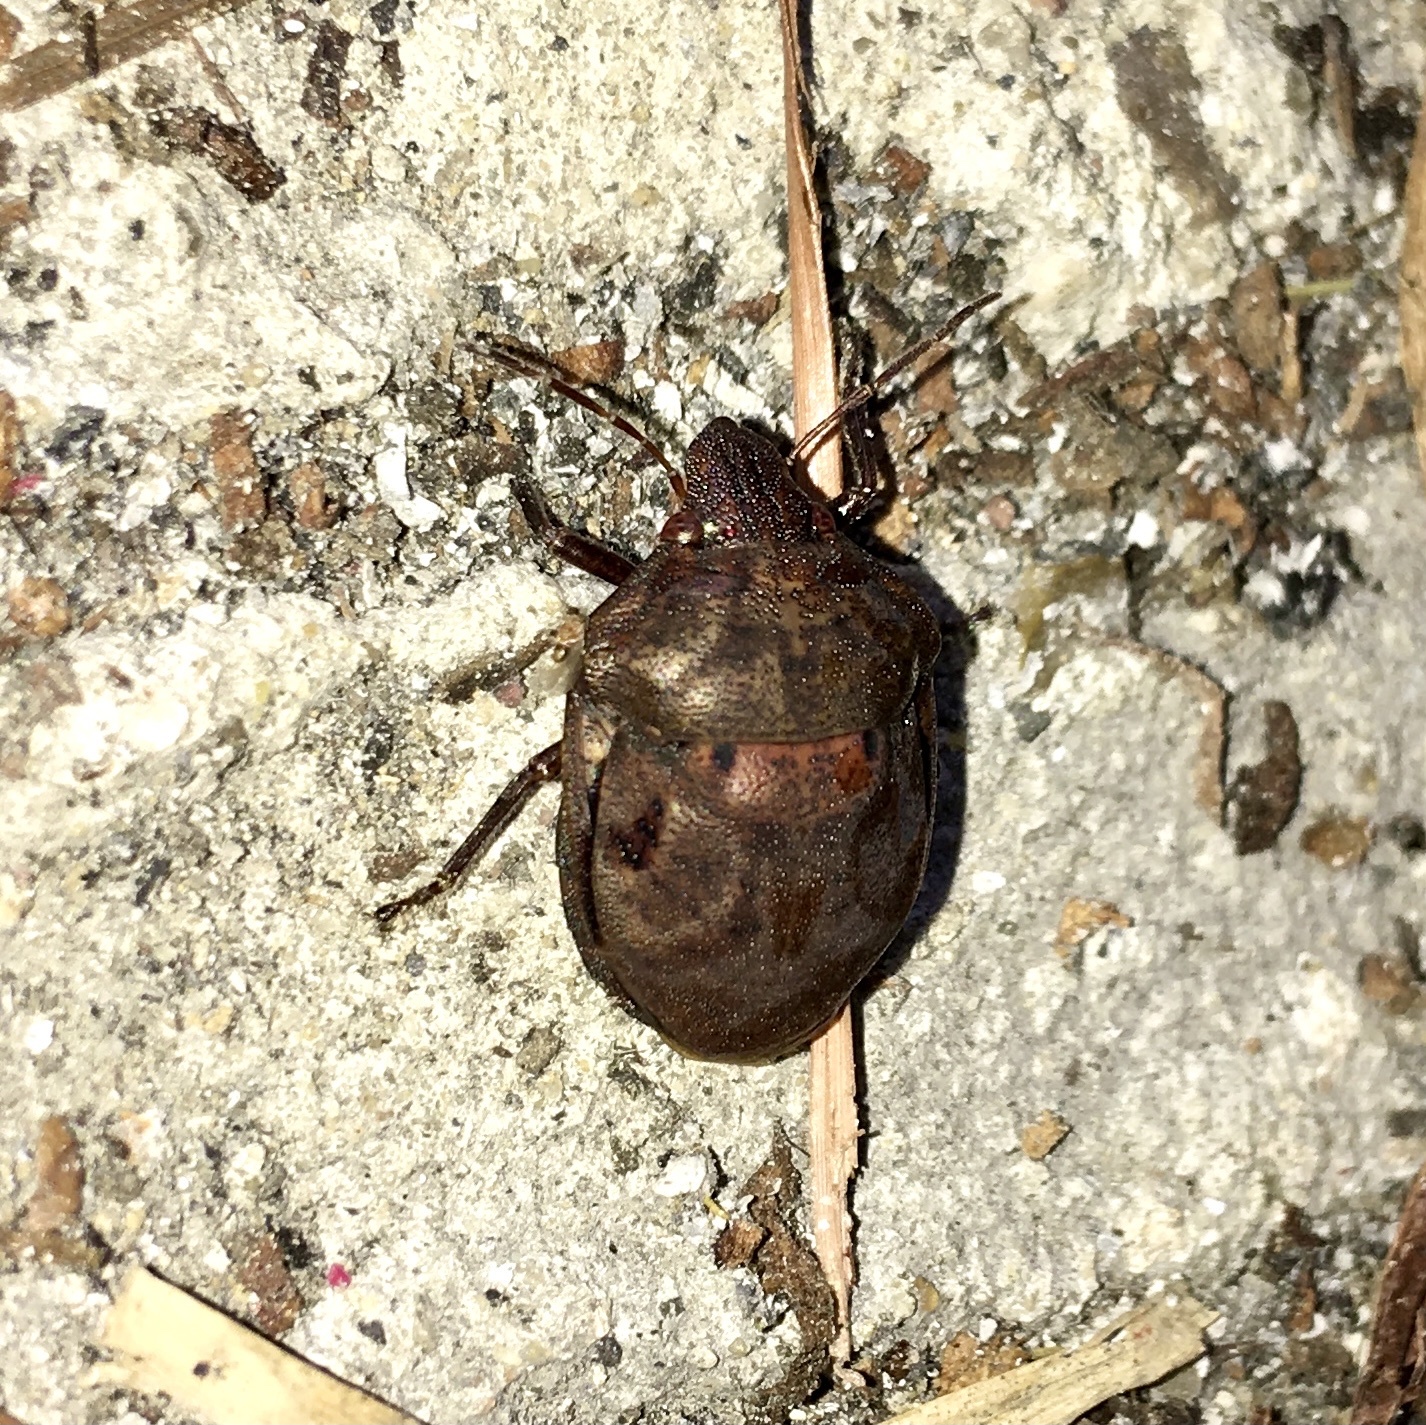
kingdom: Animalia
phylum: Arthropoda
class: Insecta
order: Hemiptera
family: Scutelleridae
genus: Tetyra
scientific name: Tetyra bipunctata
